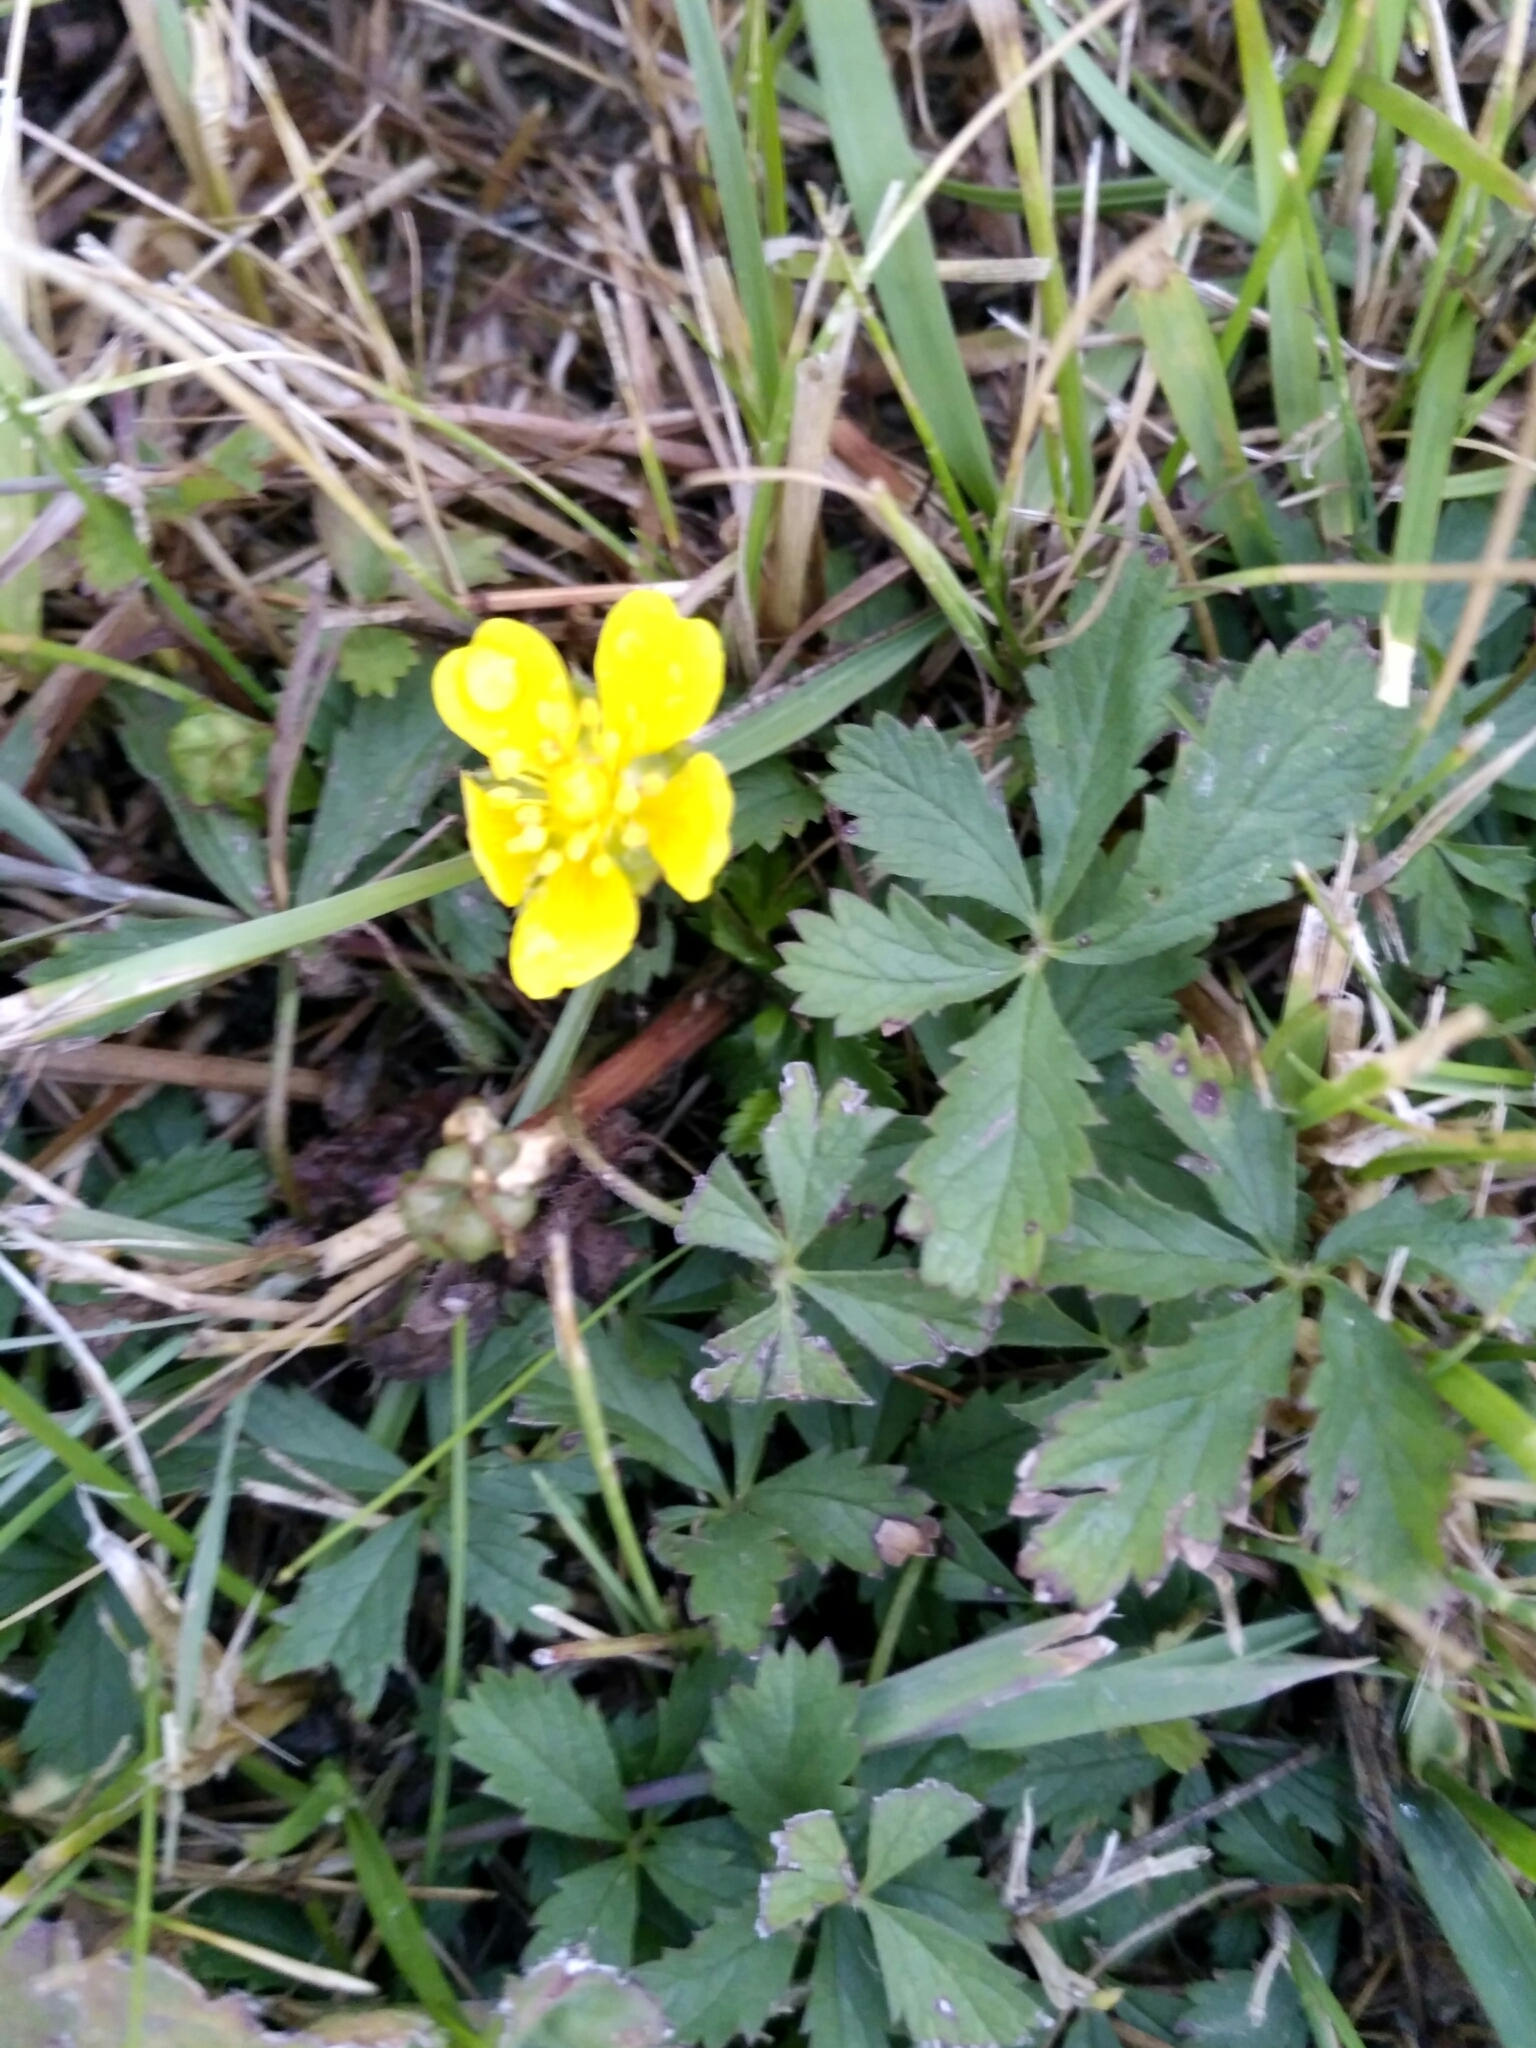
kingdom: Plantae
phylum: Tracheophyta
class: Magnoliopsida
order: Rosales
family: Rosaceae
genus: Potentilla
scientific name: Potentilla reptans
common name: Creeping cinquefoil
